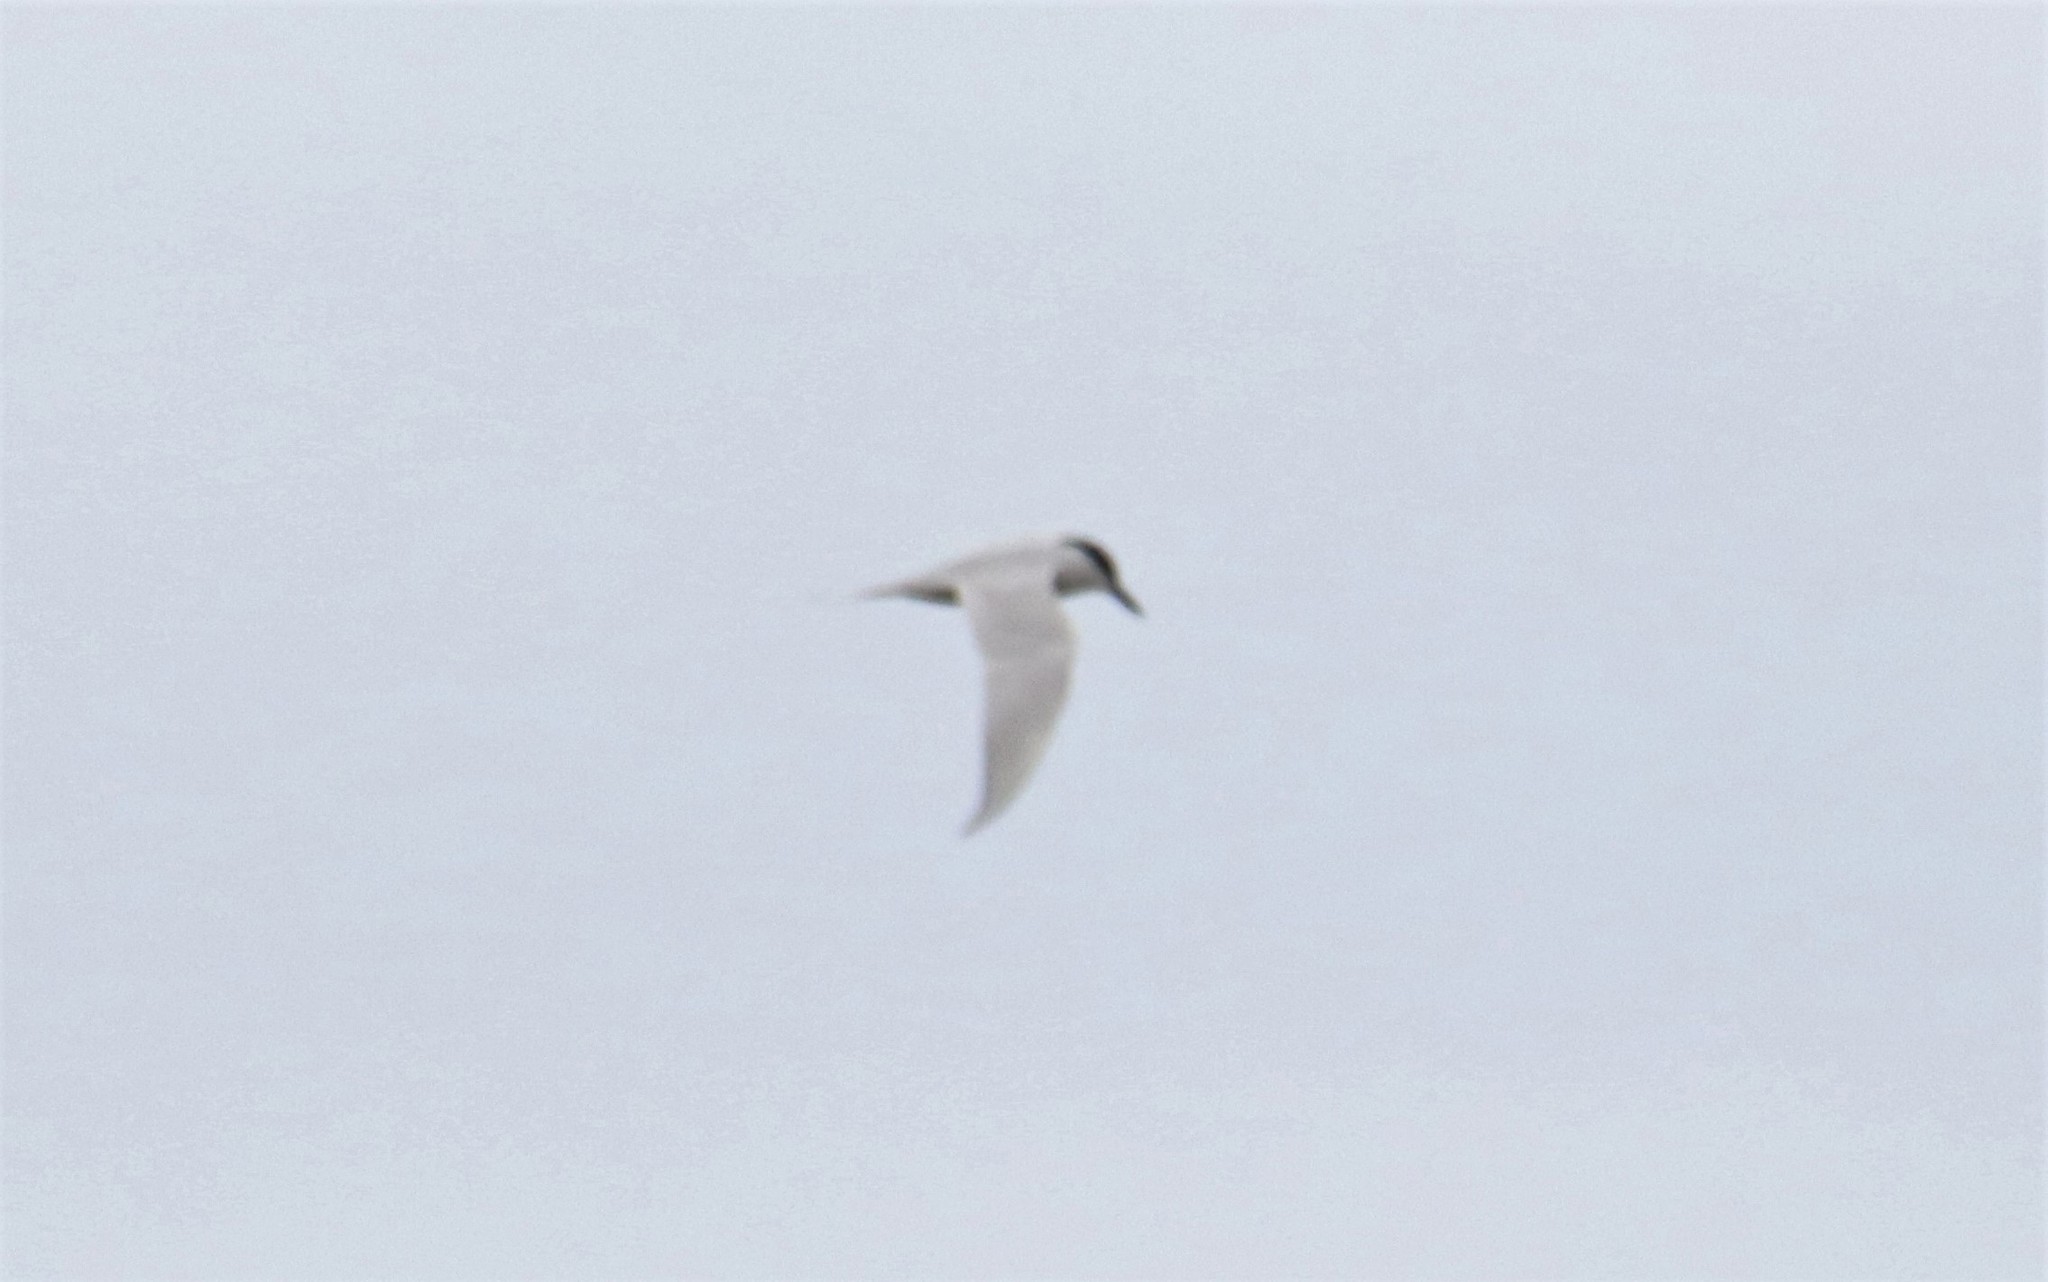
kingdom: Animalia
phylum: Chordata
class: Aves
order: Charadriiformes
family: Laridae
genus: Gelochelidon
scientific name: Gelochelidon nilotica
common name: Gull-billed tern
